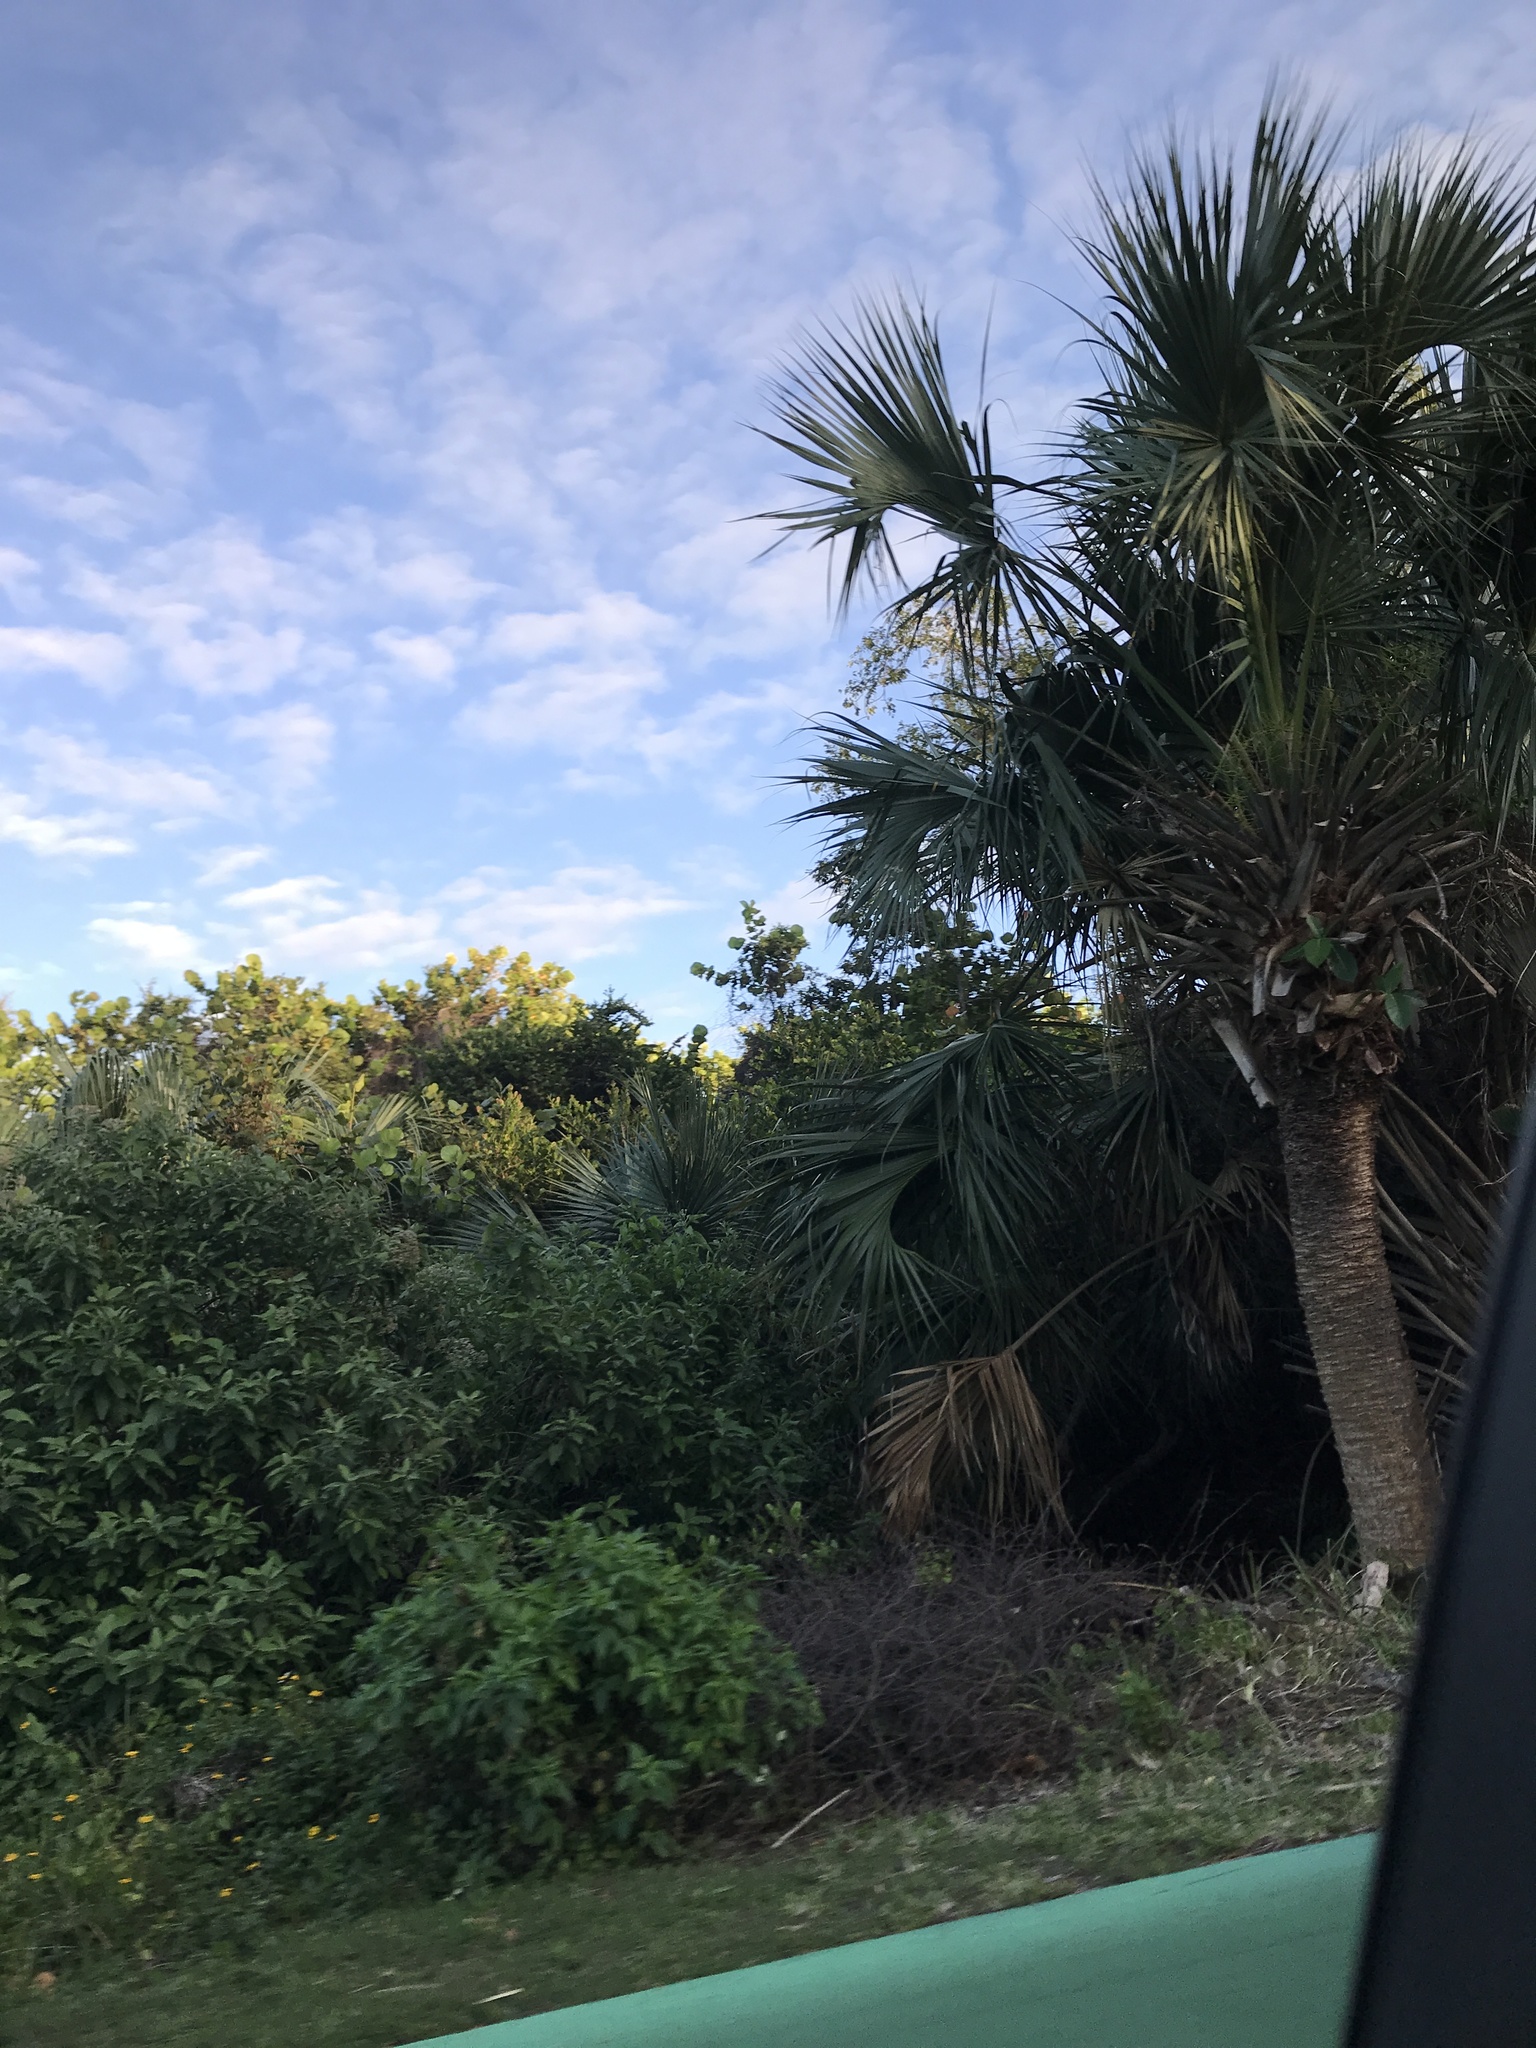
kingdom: Plantae
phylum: Tracheophyta
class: Liliopsida
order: Arecales
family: Arecaceae
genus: Sabal
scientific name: Sabal palmetto
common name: Blue palmetto
